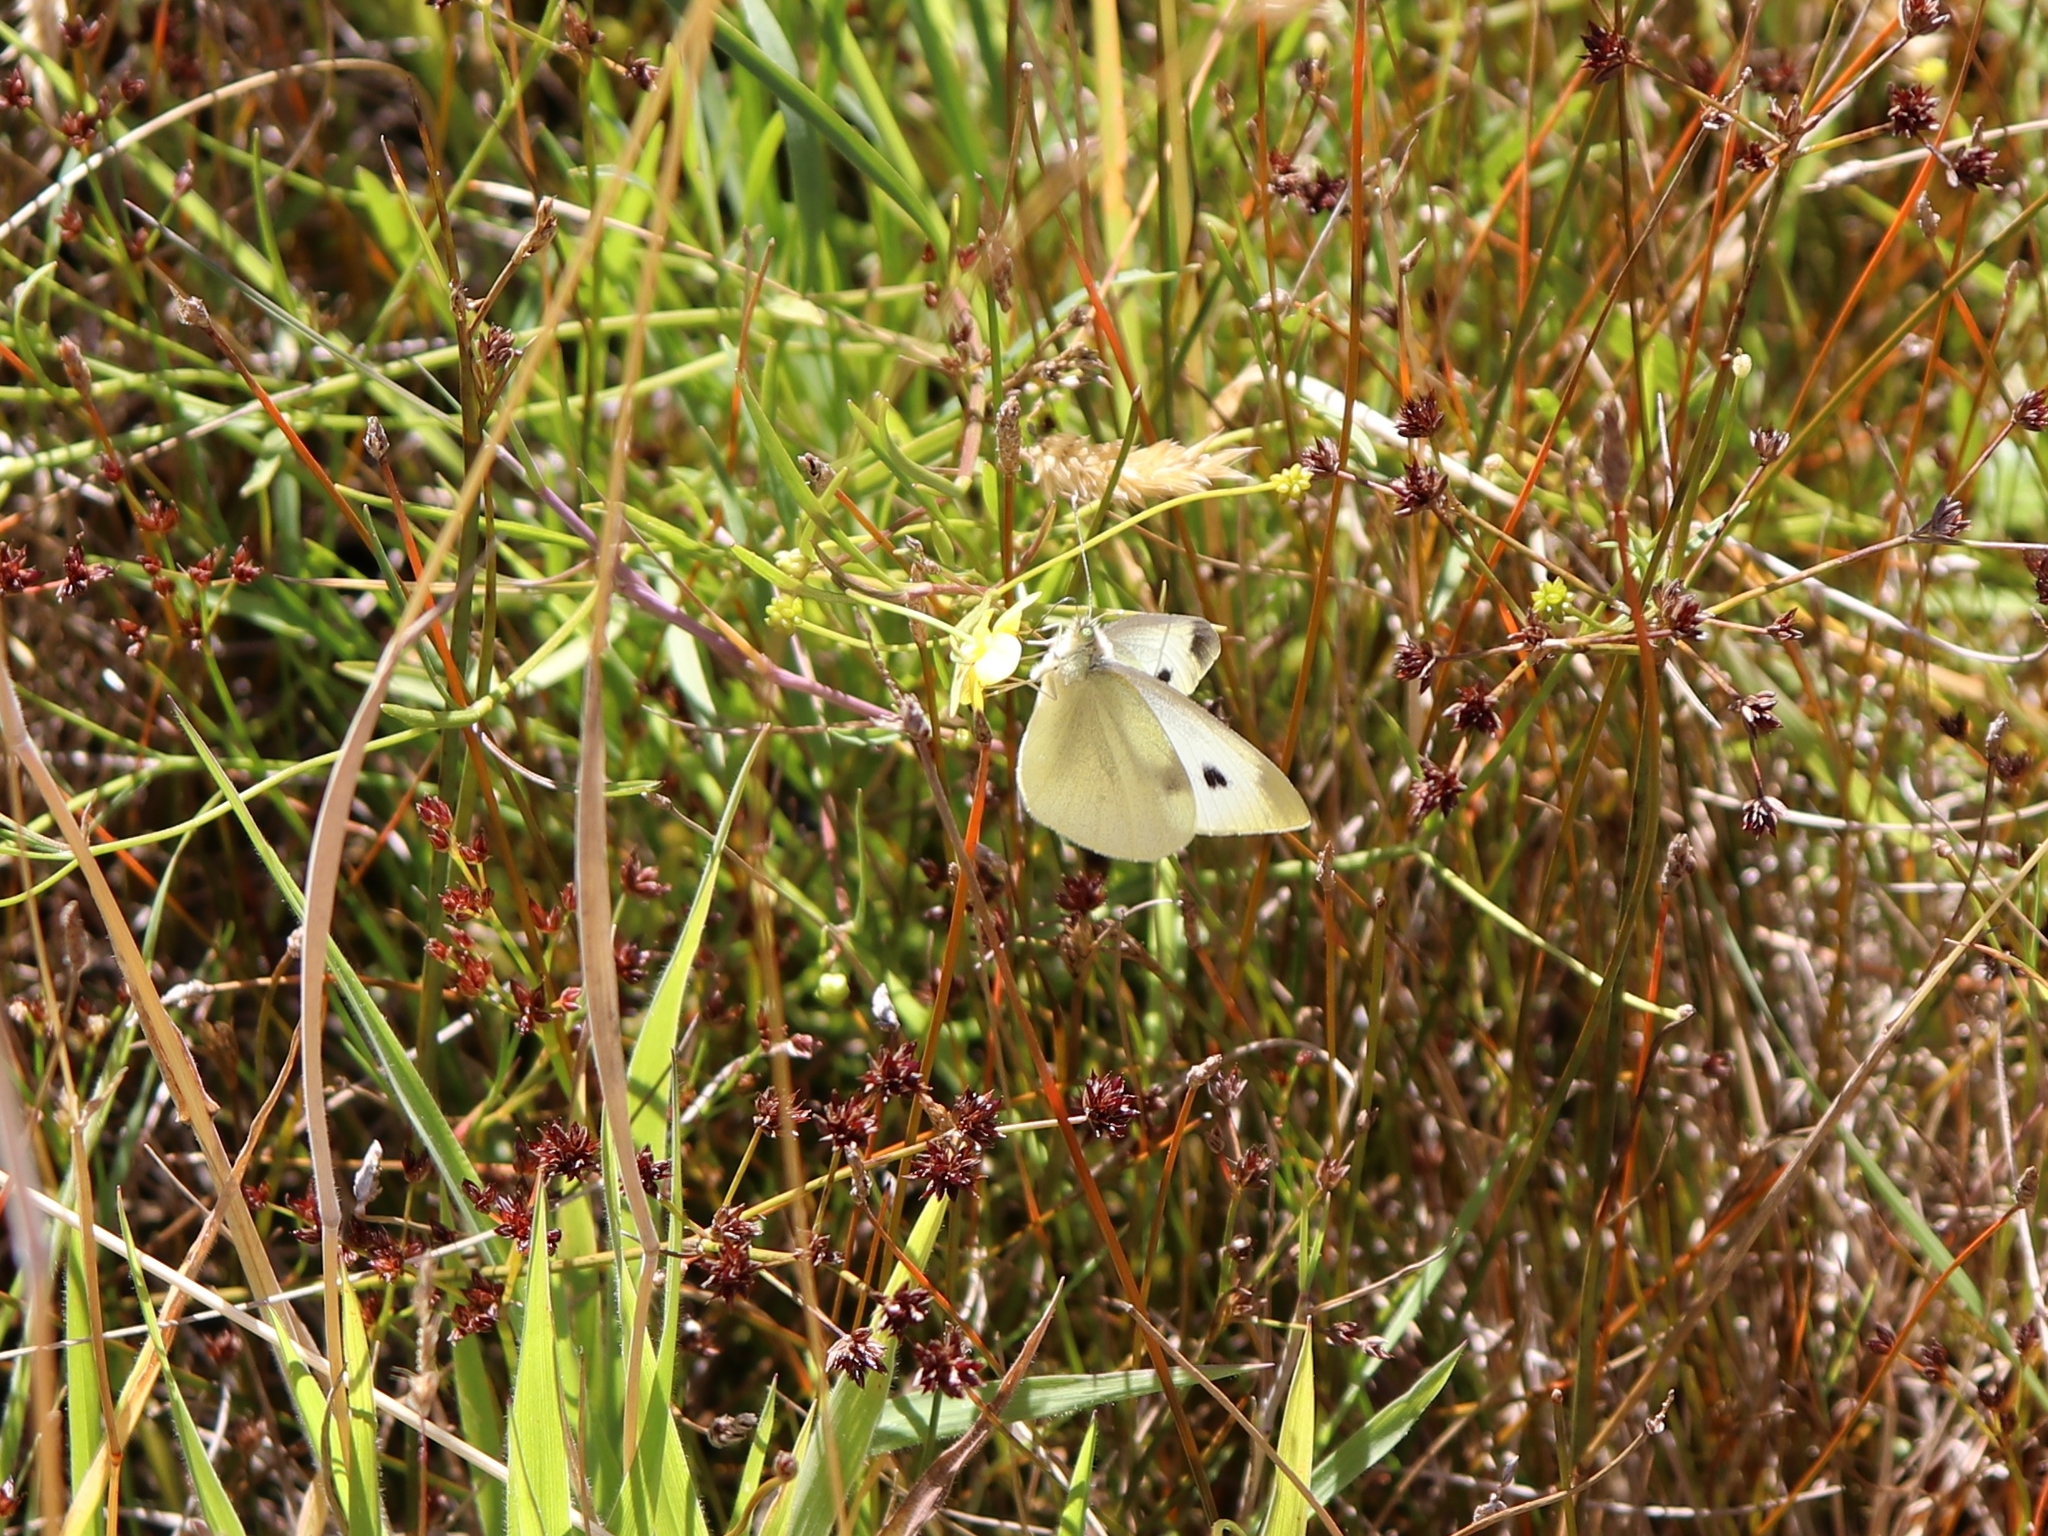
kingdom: Animalia
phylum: Arthropoda
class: Insecta
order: Lepidoptera
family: Pieridae
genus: Pieris
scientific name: Pieris rapae
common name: Small white
